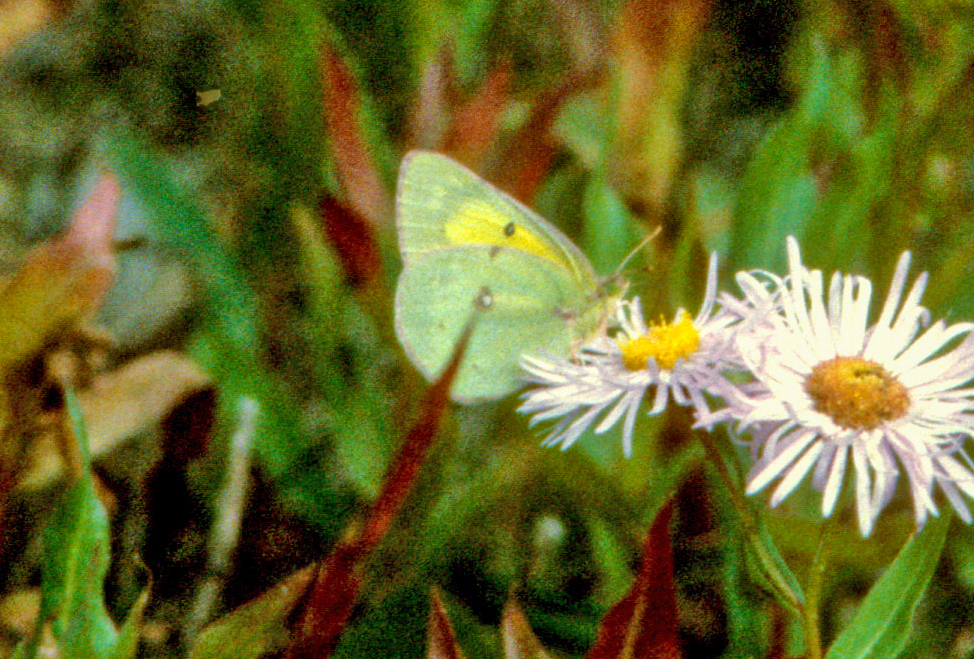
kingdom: Animalia
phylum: Arthropoda
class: Insecta
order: Lepidoptera
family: Pieridae
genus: Colias
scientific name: Colias eurytheme
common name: Alfalfa butterfly
